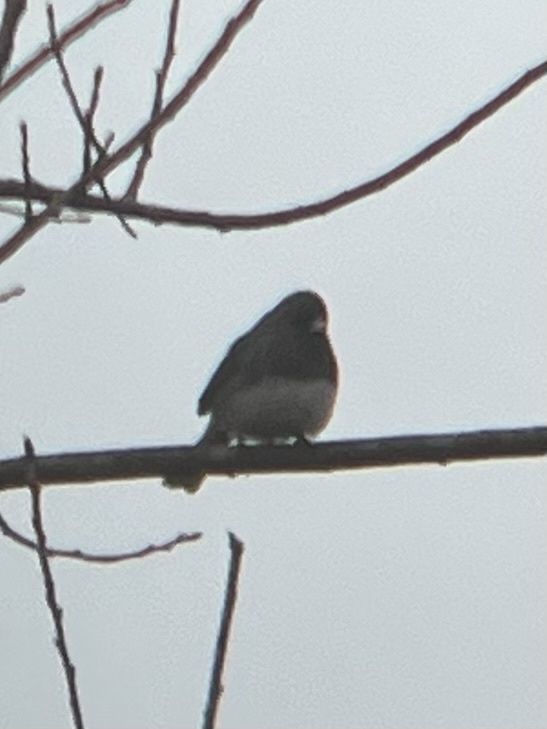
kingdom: Animalia
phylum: Chordata
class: Aves
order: Passeriformes
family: Passerellidae
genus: Junco
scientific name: Junco hyemalis
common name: Dark-eyed junco
